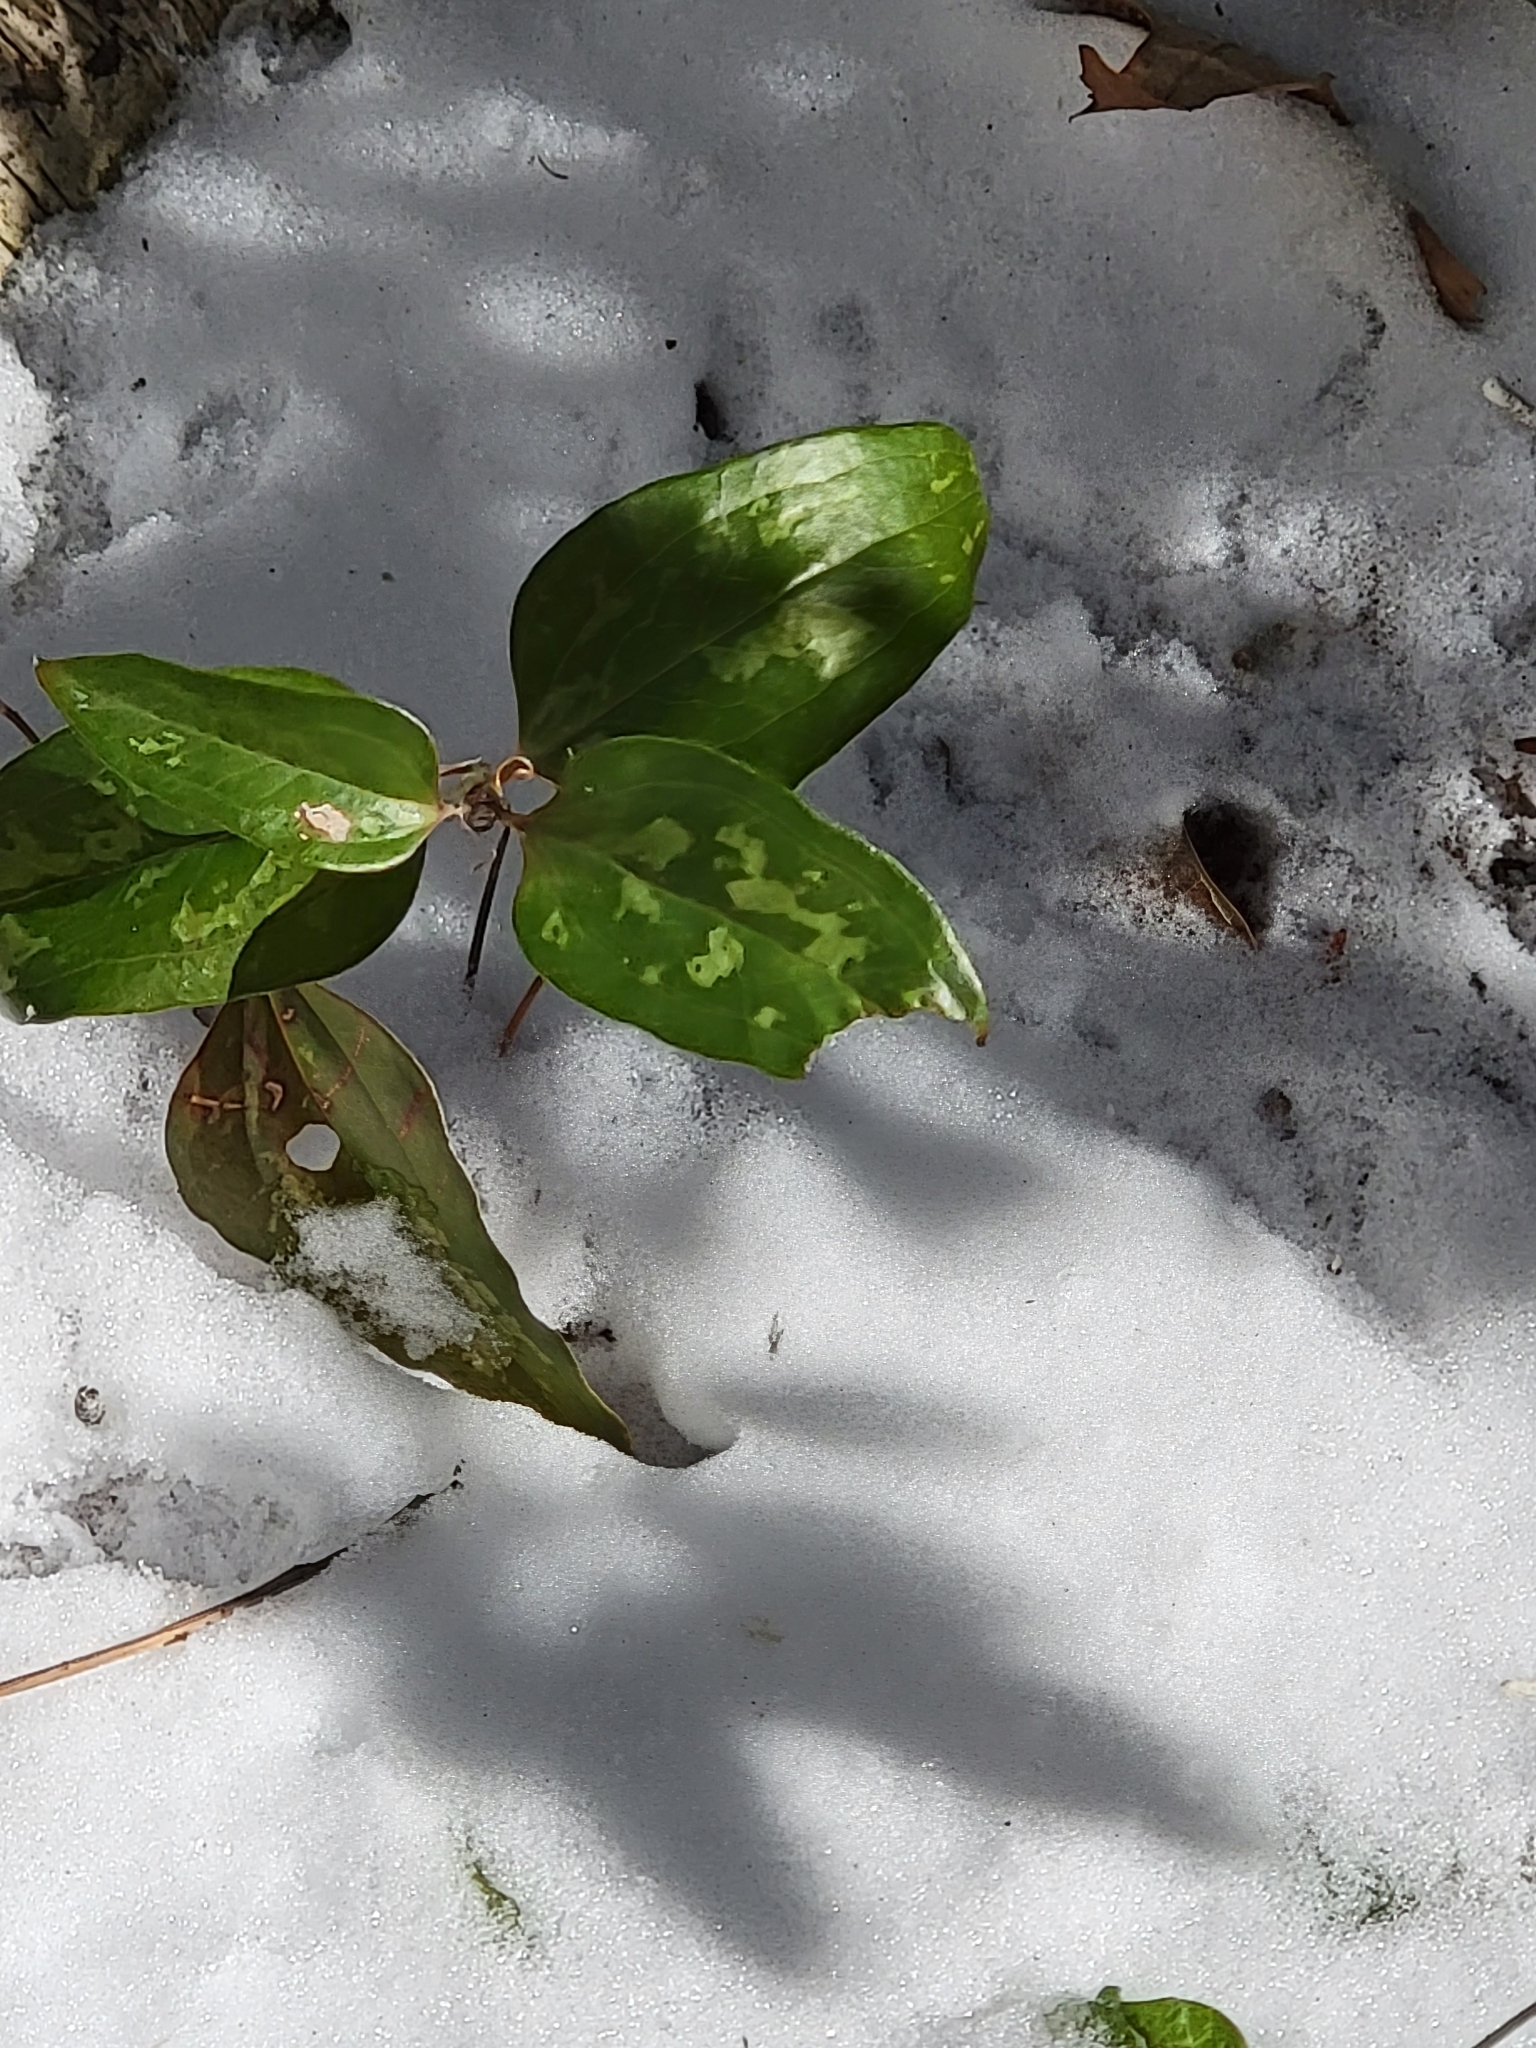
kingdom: Plantae
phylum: Tracheophyta
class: Liliopsida
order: Liliales
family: Smilacaceae
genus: Smilax
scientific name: Smilax glauca
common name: Cat greenbrier
